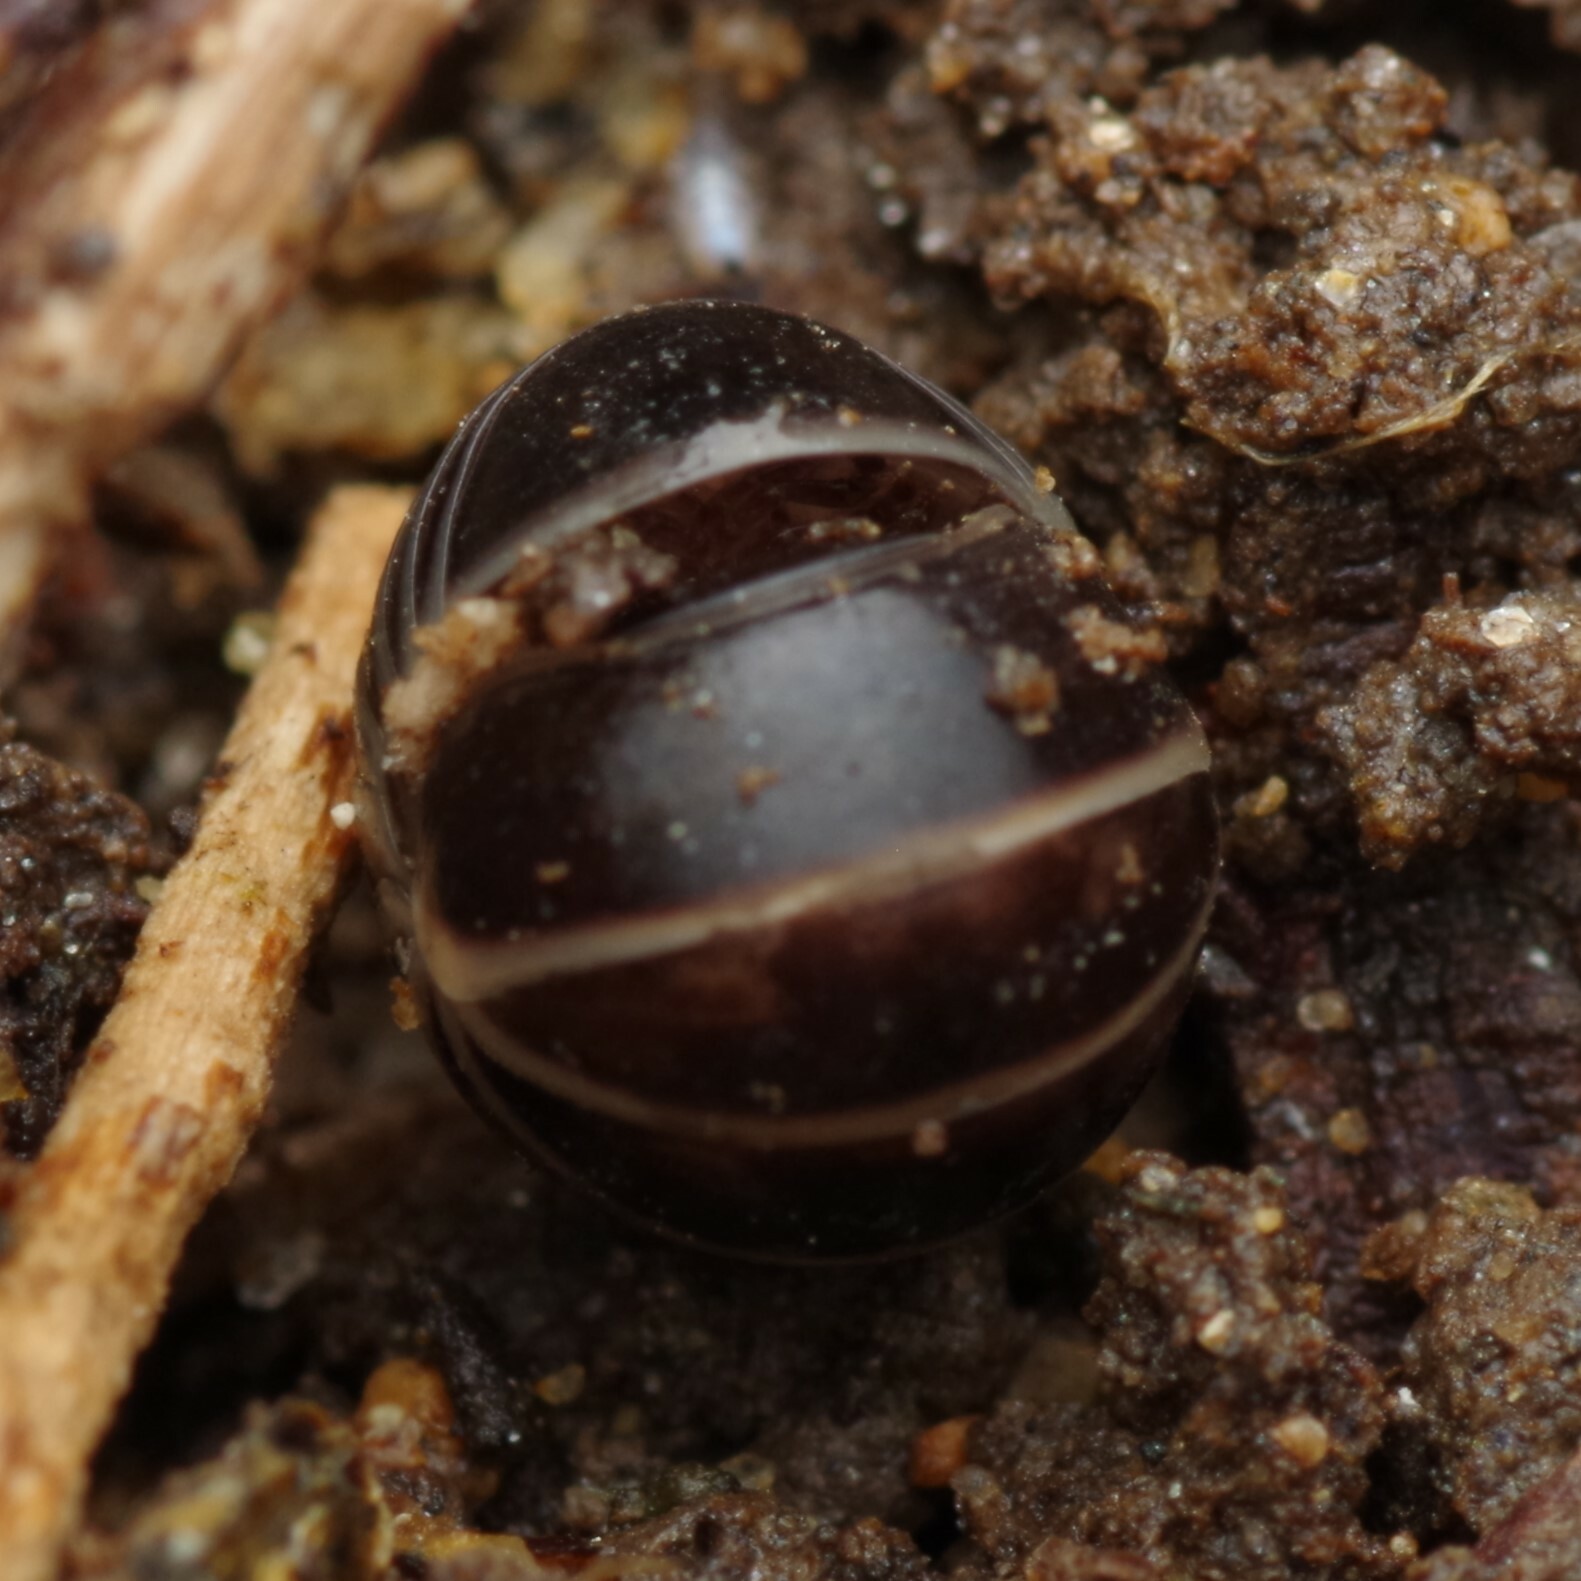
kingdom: Animalia
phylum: Arthropoda
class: Diplopoda
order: Glomerida
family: Glomeridae
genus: Glomeris
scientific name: Glomeris marginata
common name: Bordered pill millipede
